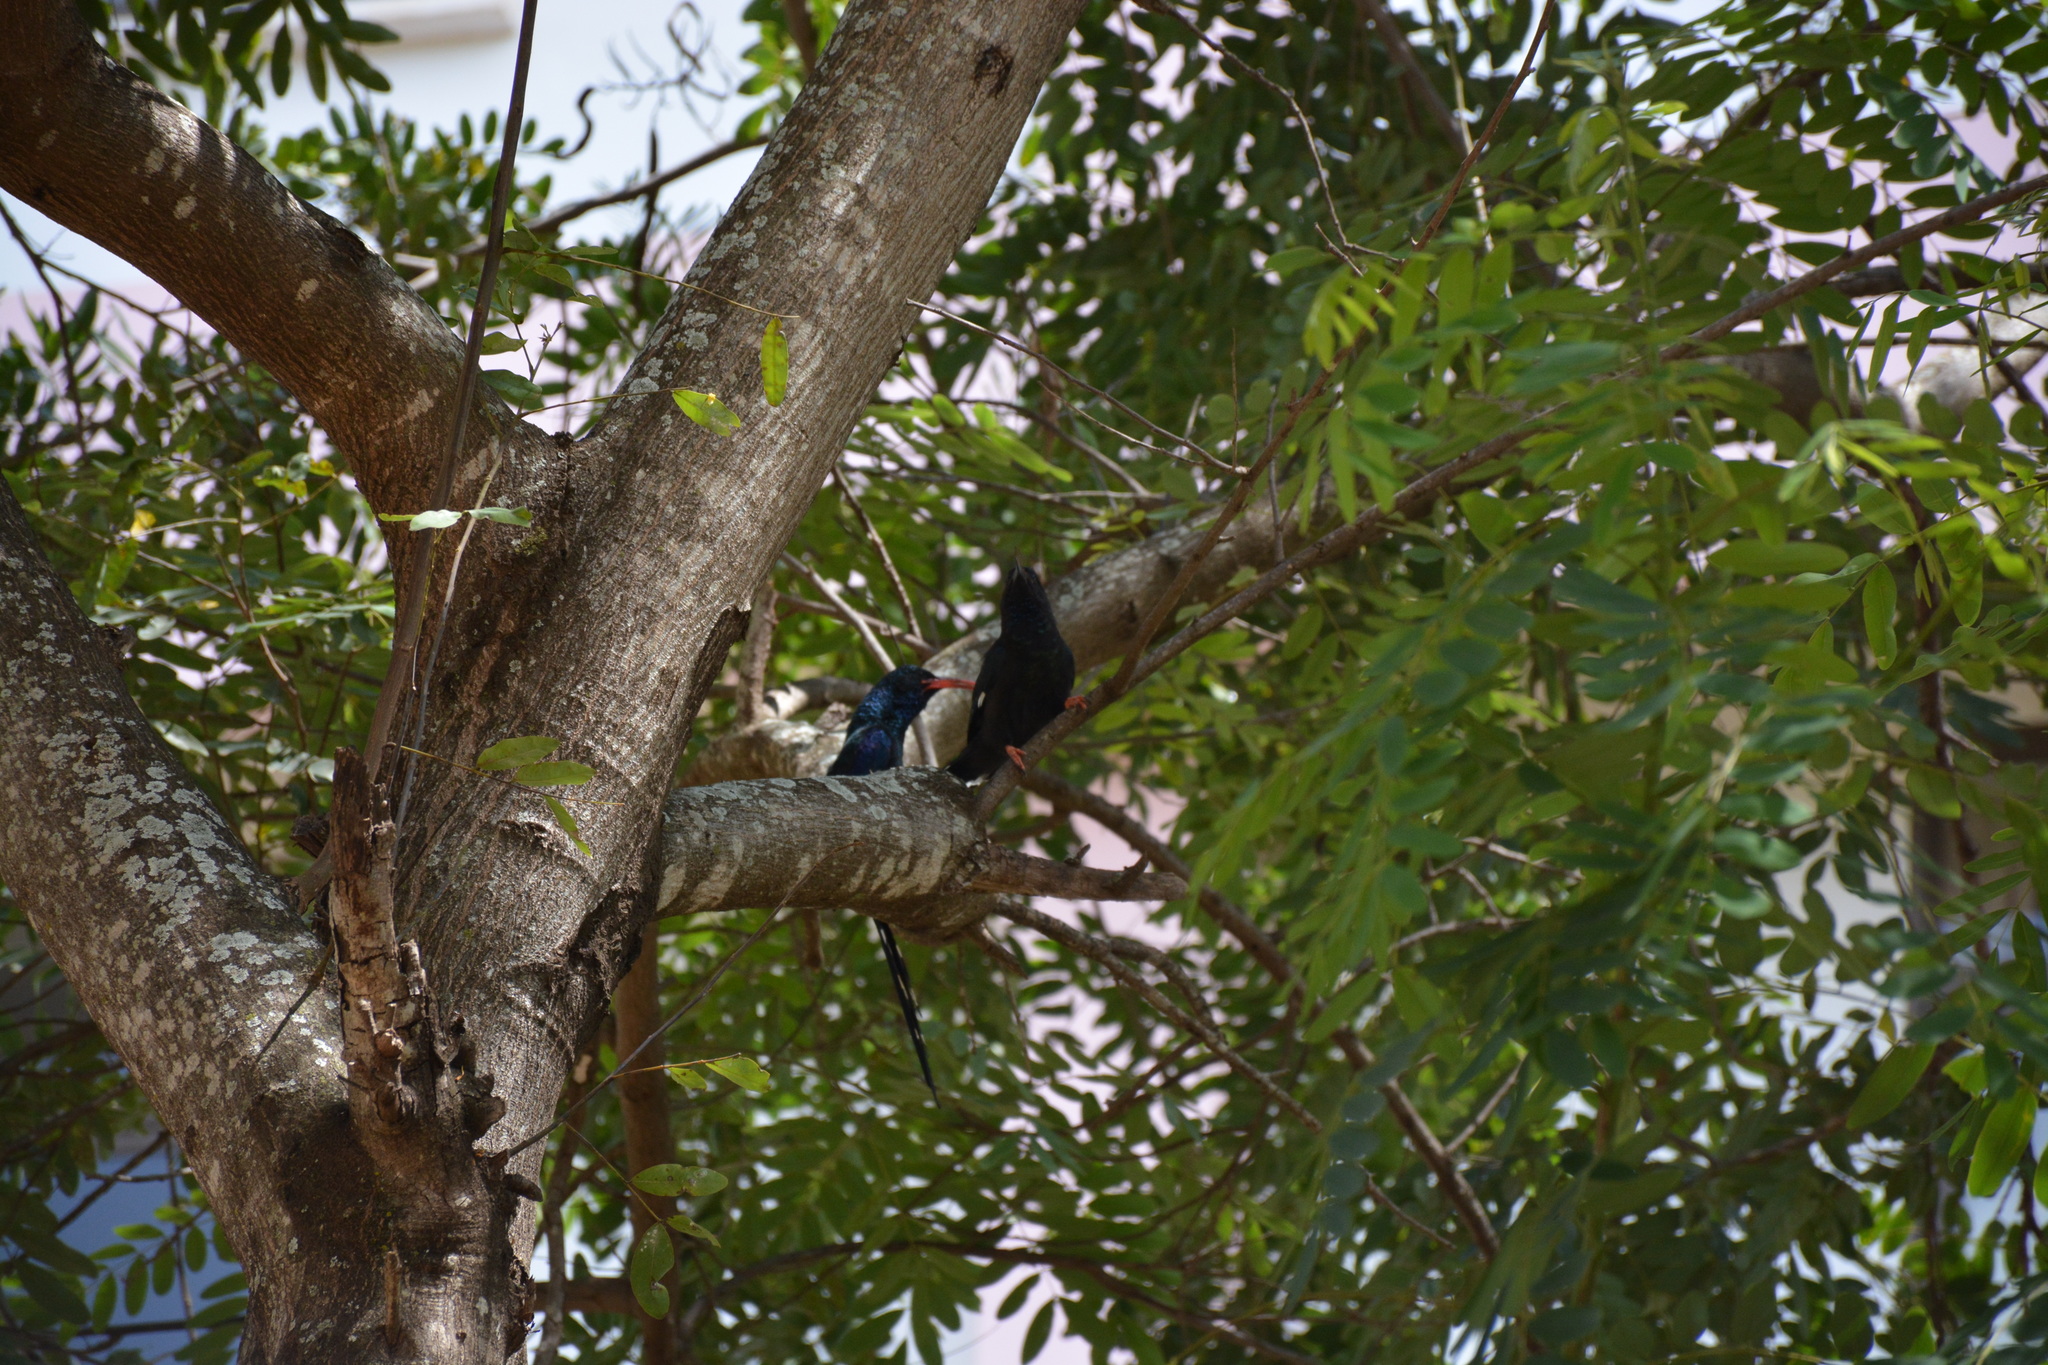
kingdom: Animalia
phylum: Chordata
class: Aves
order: Bucerotiformes
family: Phoeniculidae
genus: Phoeniculus
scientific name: Phoeniculus purpureus
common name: Green woodhoopoe
